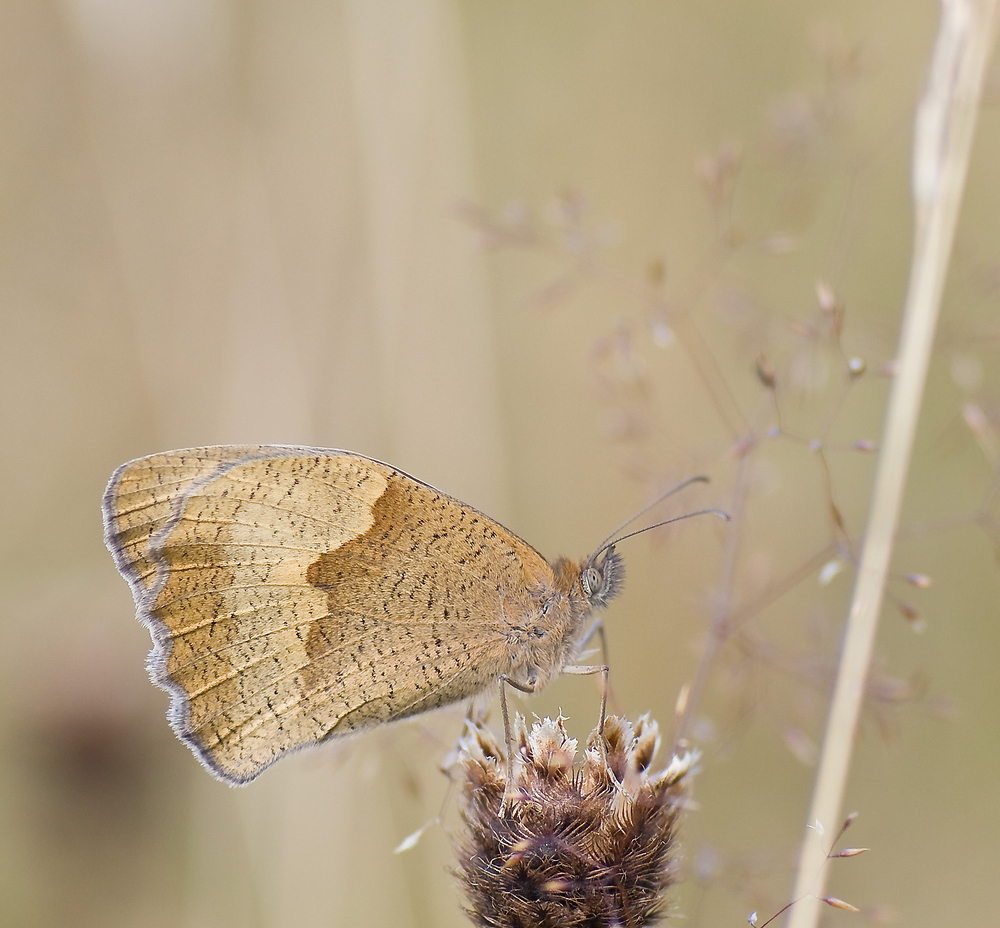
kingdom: Animalia
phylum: Arthropoda
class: Insecta
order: Lepidoptera
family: Nymphalidae
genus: Maniola
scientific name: Maniola jurtina
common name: Meadow brown
